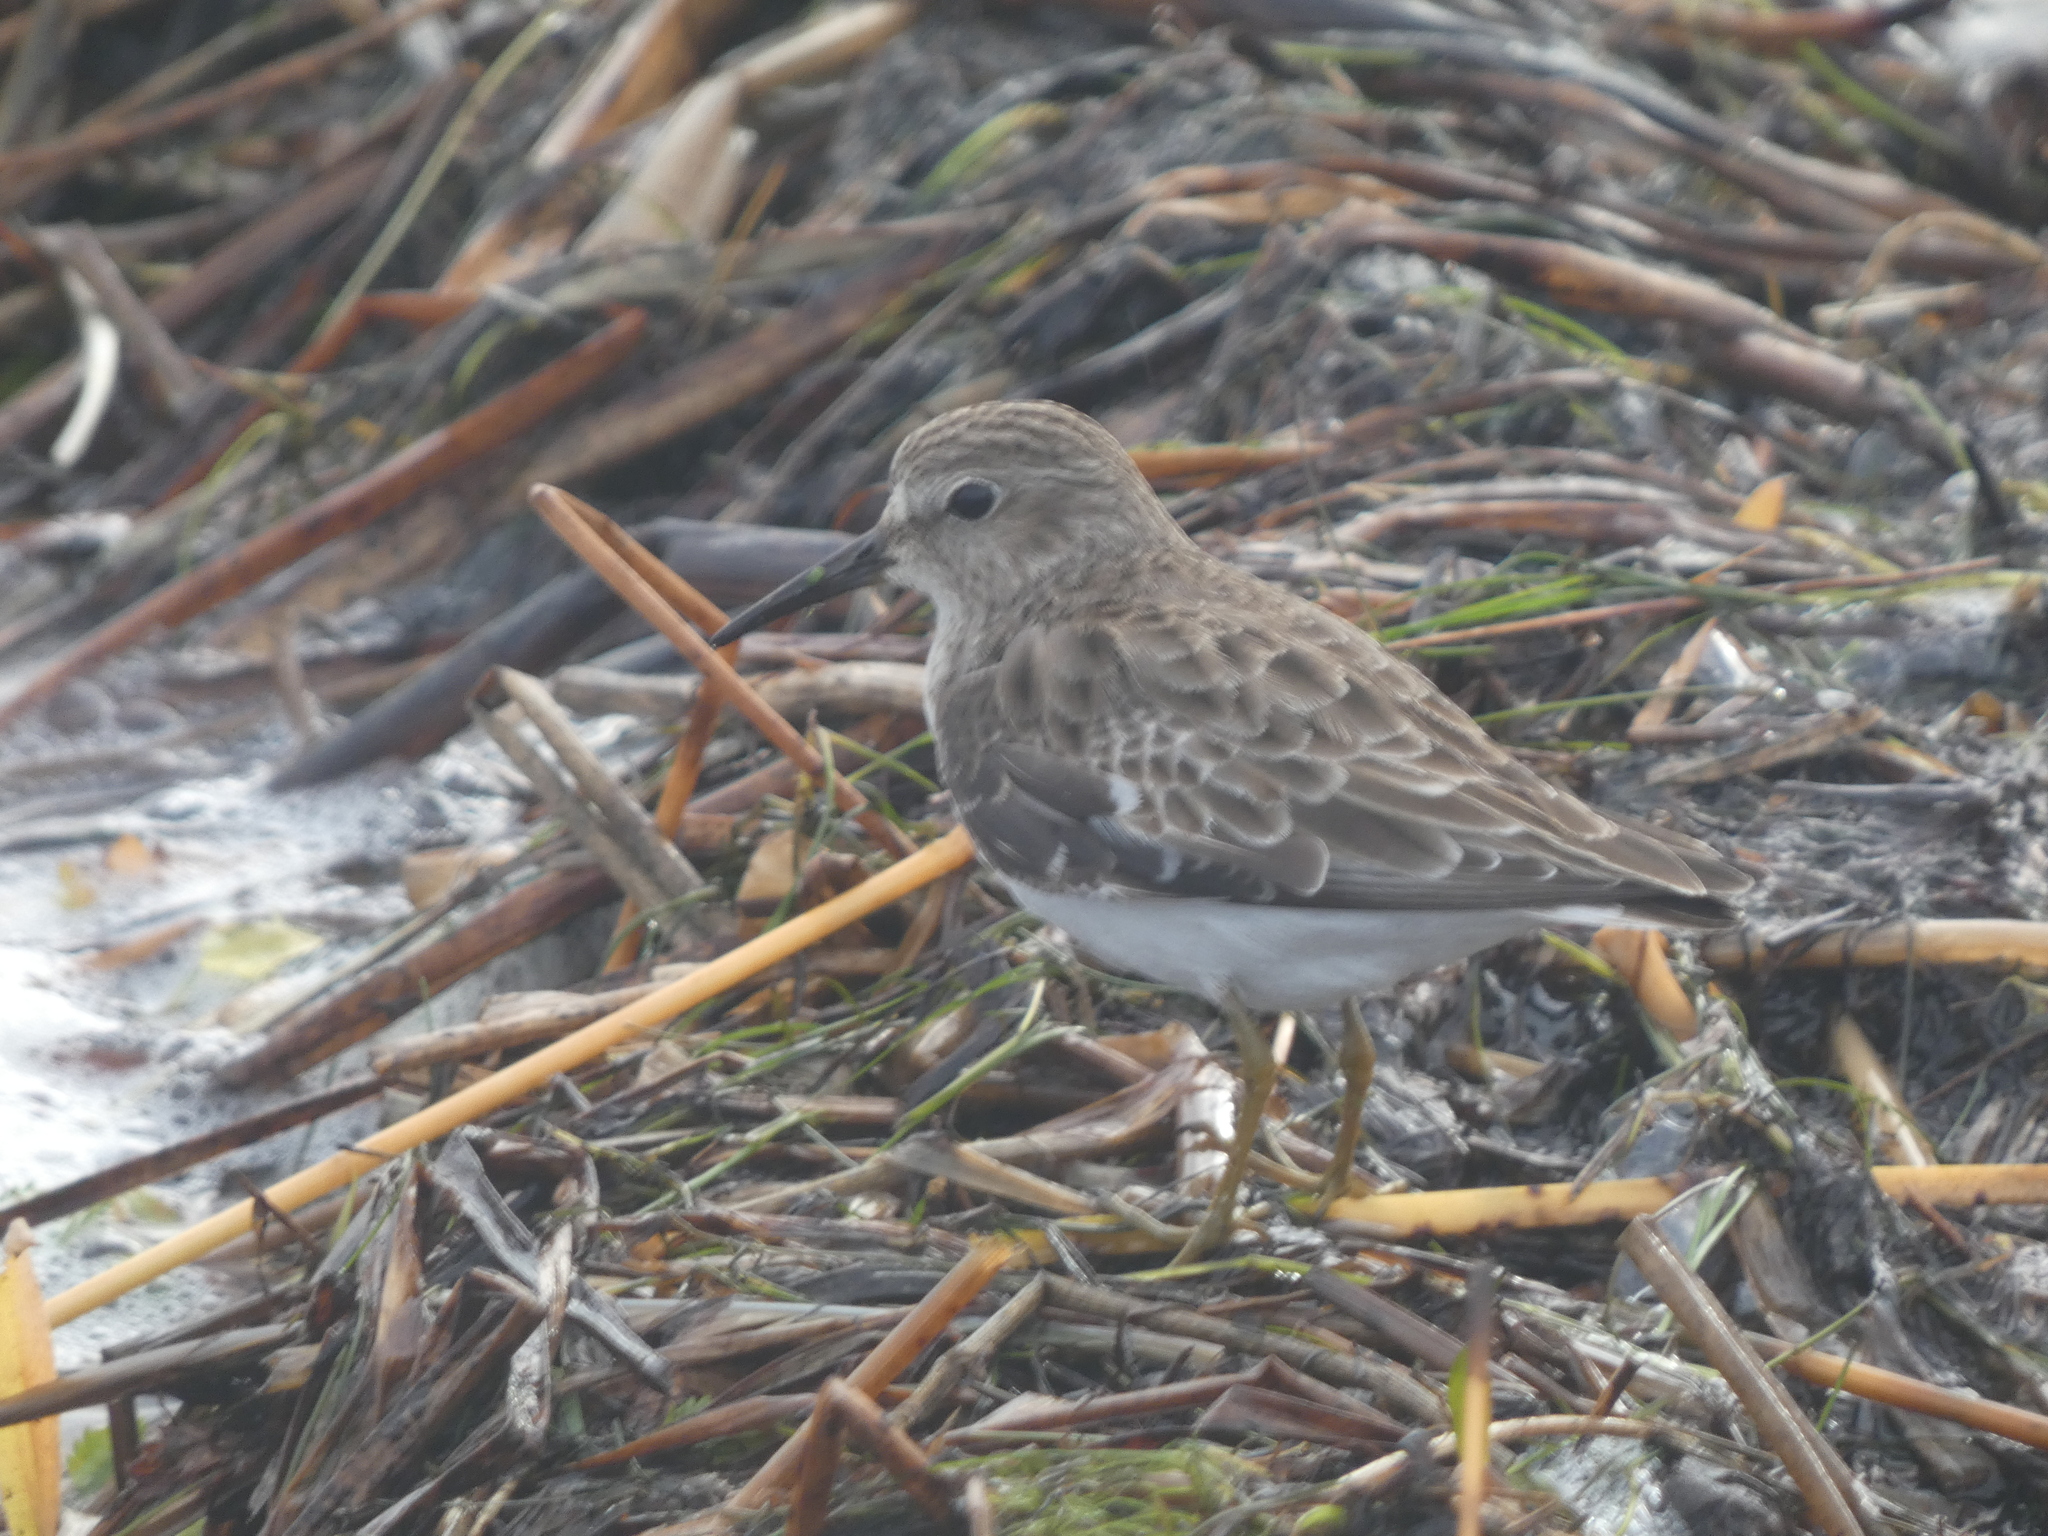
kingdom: Animalia
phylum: Chordata
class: Aves
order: Charadriiformes
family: Scolopacidae
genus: Calidris
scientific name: Calidris minutilla
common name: Least sandpiper
